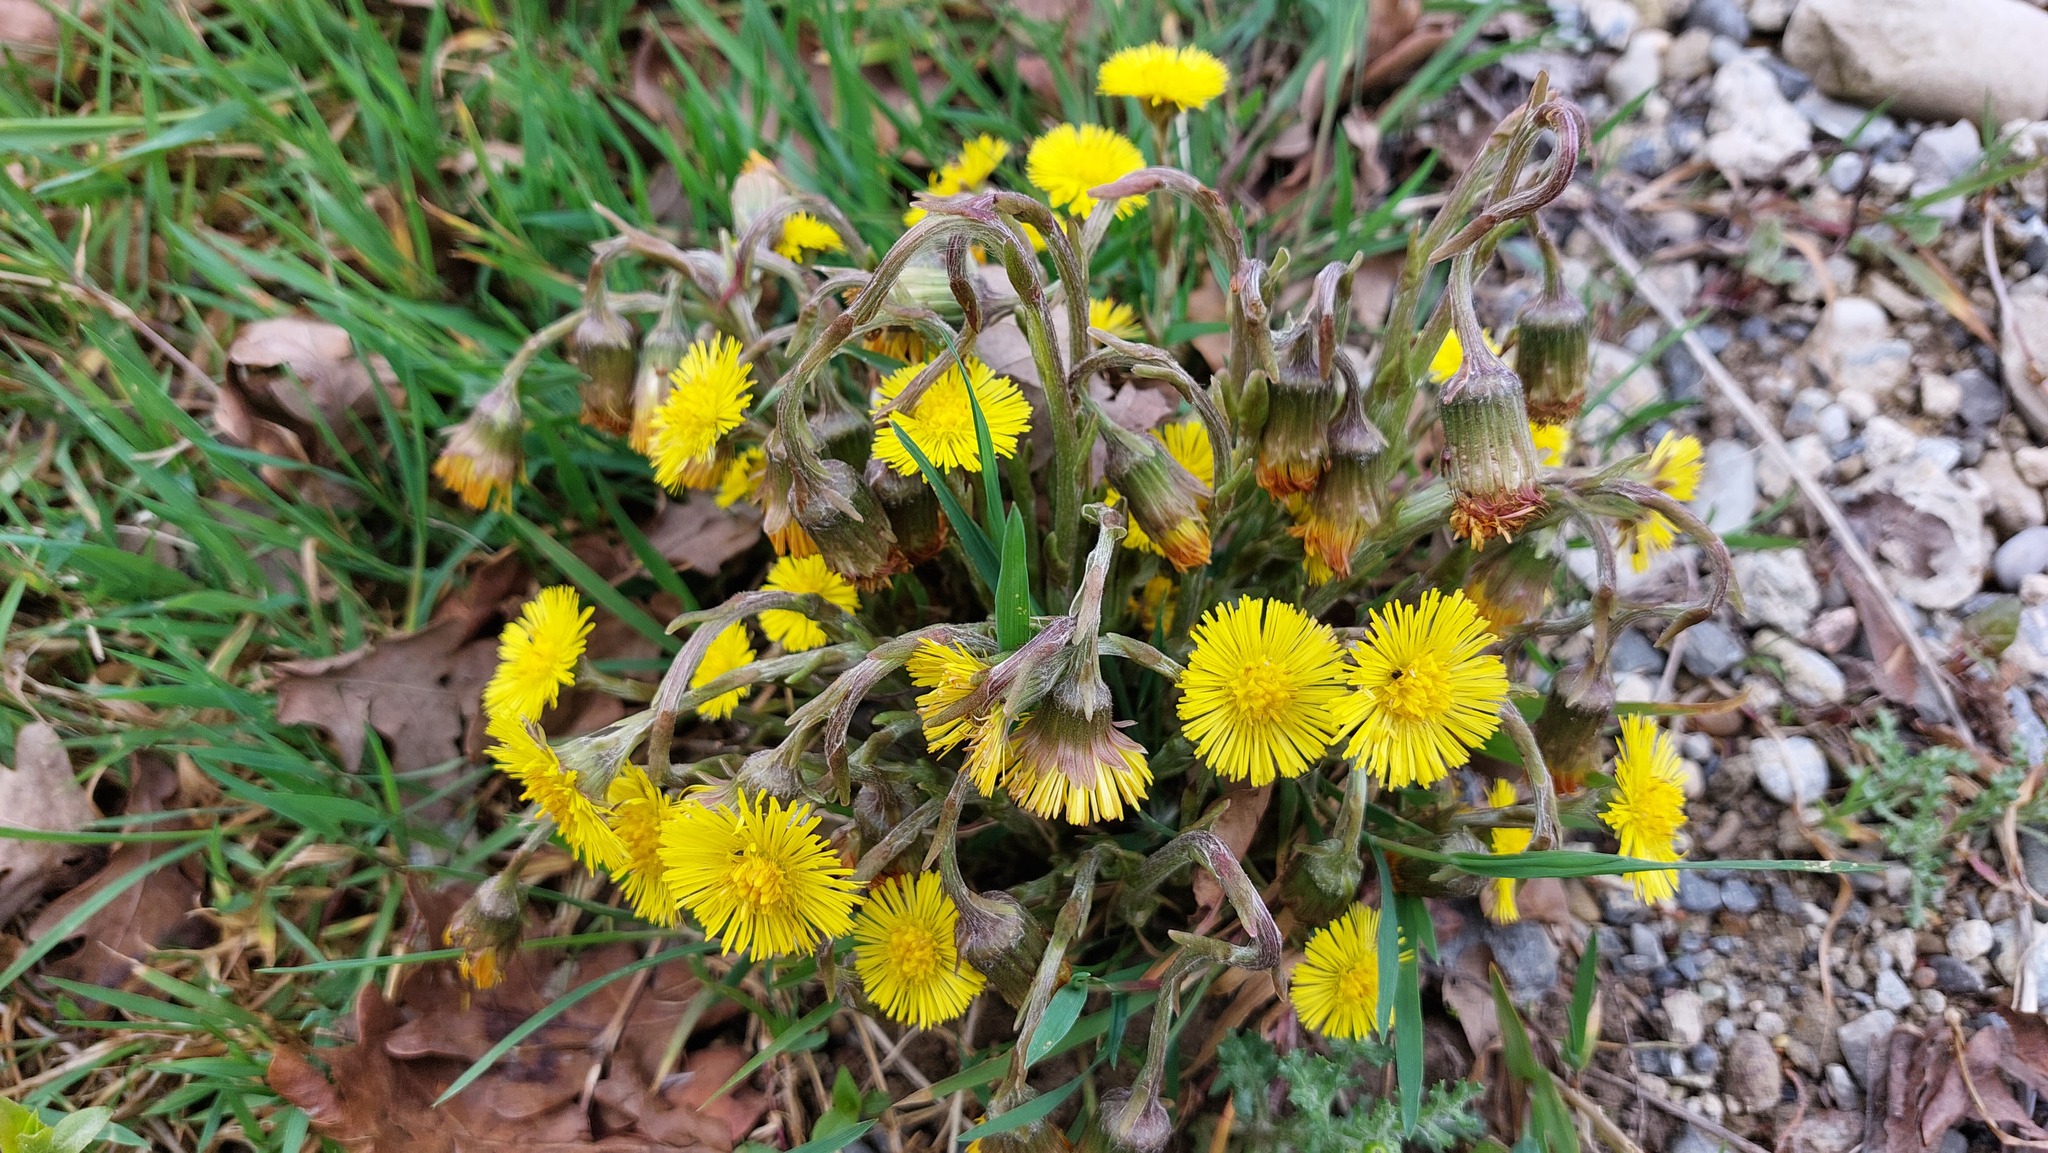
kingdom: Plantae
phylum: Tracheophyta
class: Magnoliopsida
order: Asterales
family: Asteraceae
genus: Tussilago
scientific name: Tussilago farfara
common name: Coltsfoot
